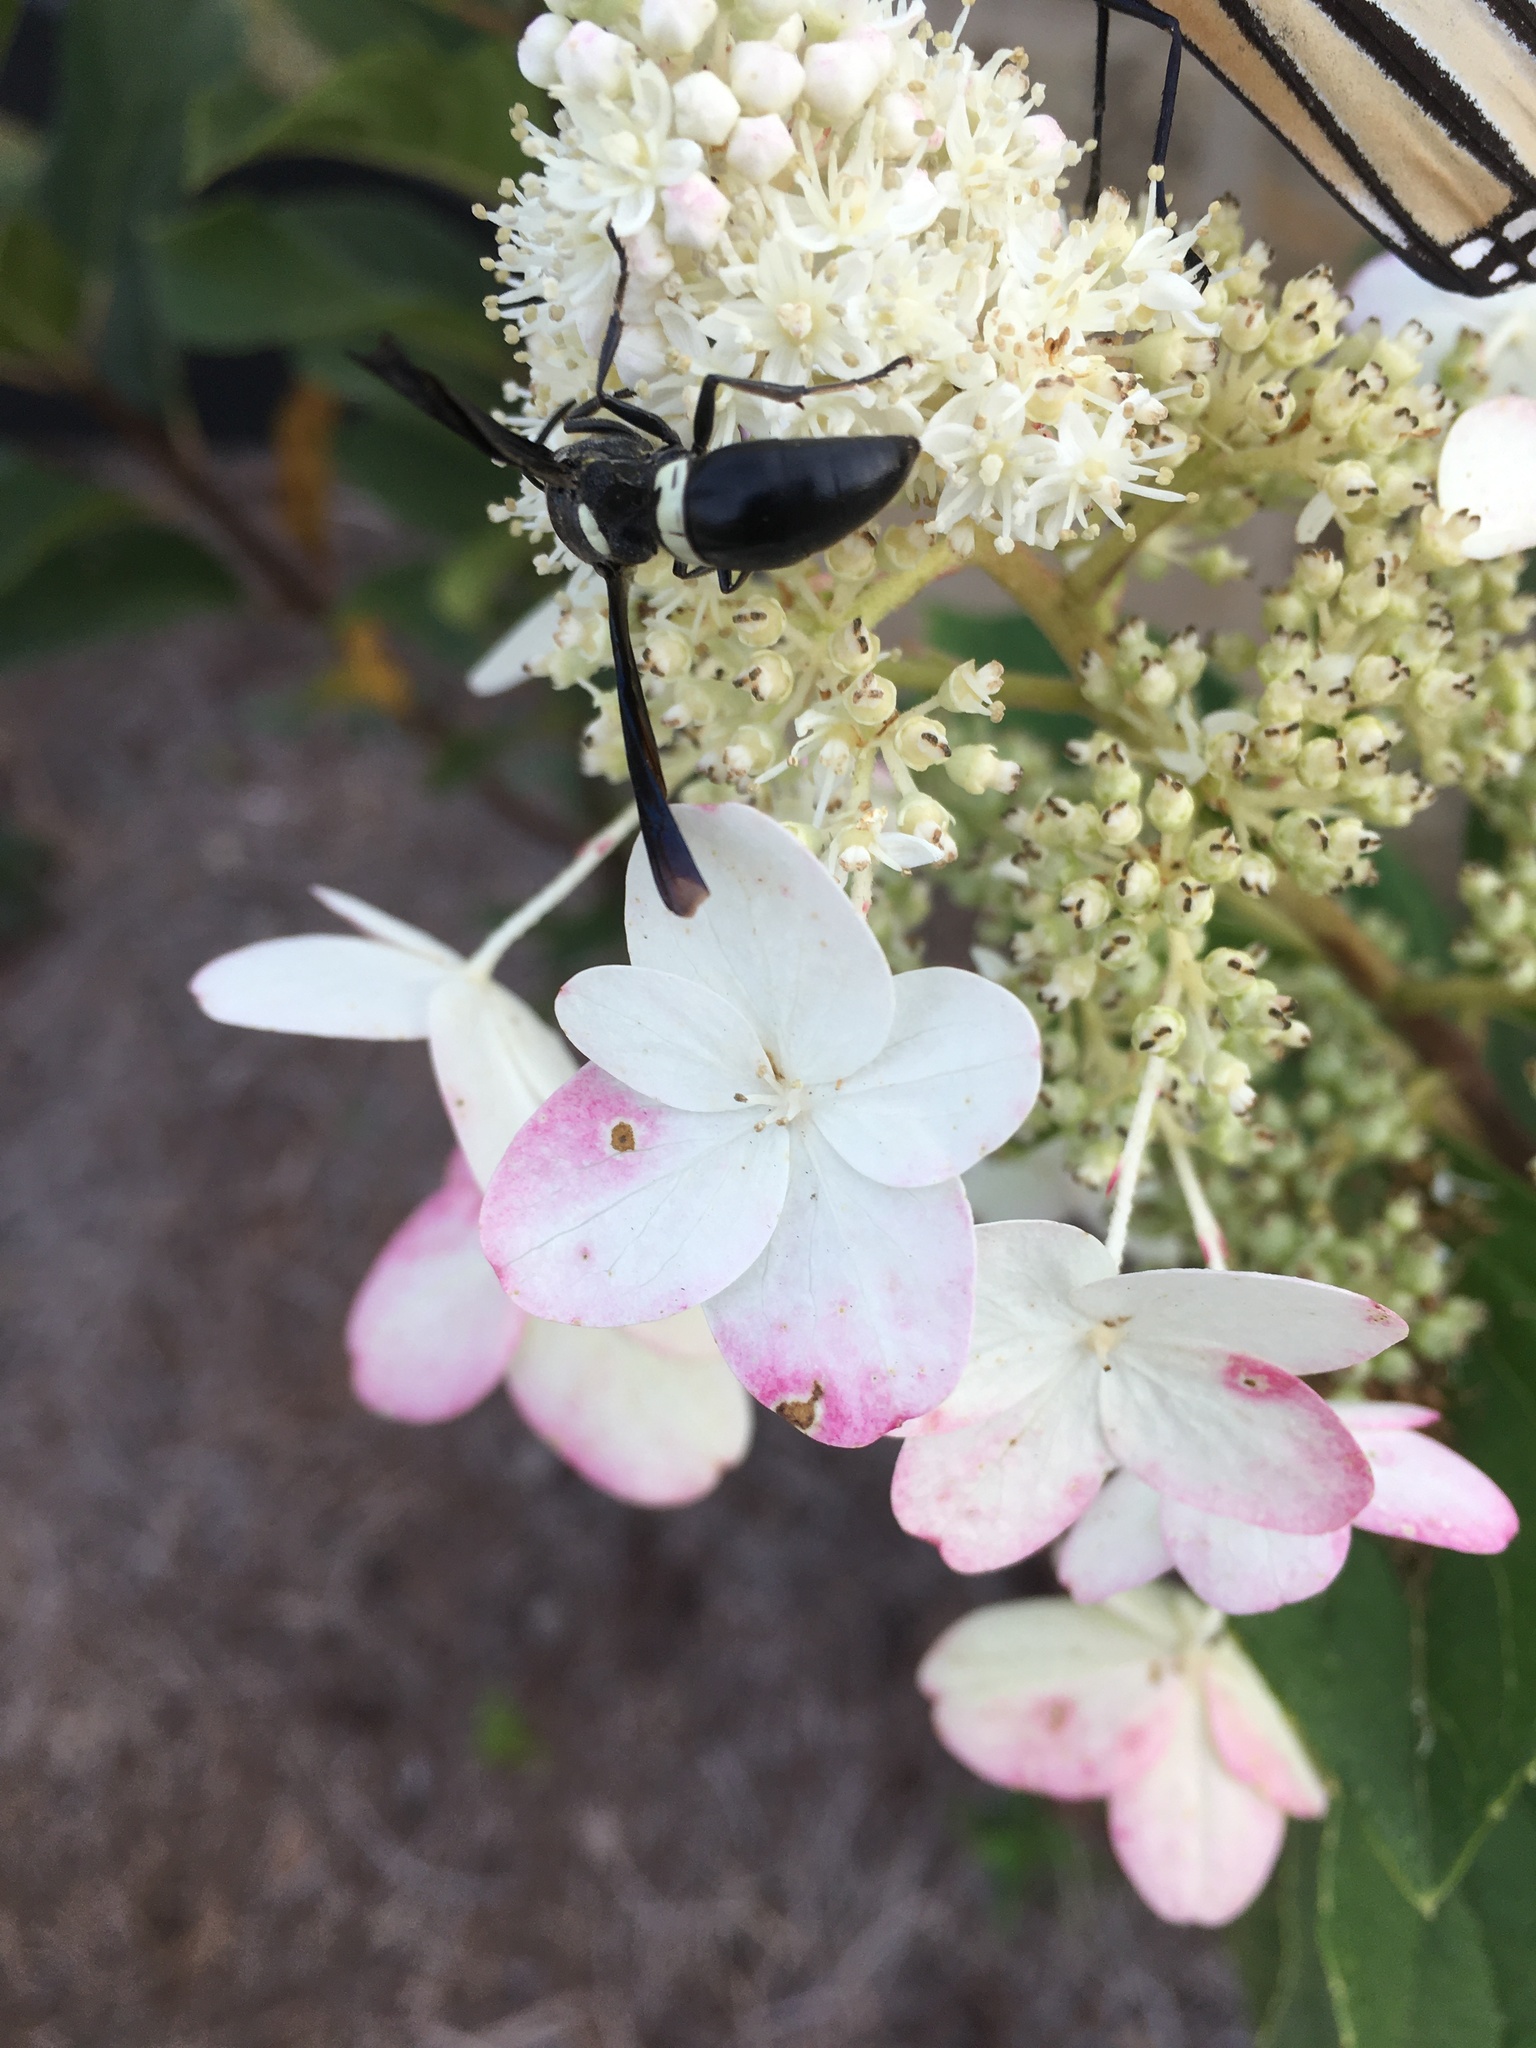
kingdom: Animalia
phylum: Arthropoda
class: Insecta
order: Hymenoptera
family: Eumenidae
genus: Monobia
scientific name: Monobia quadridens
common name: Four-toothed mason wasp
